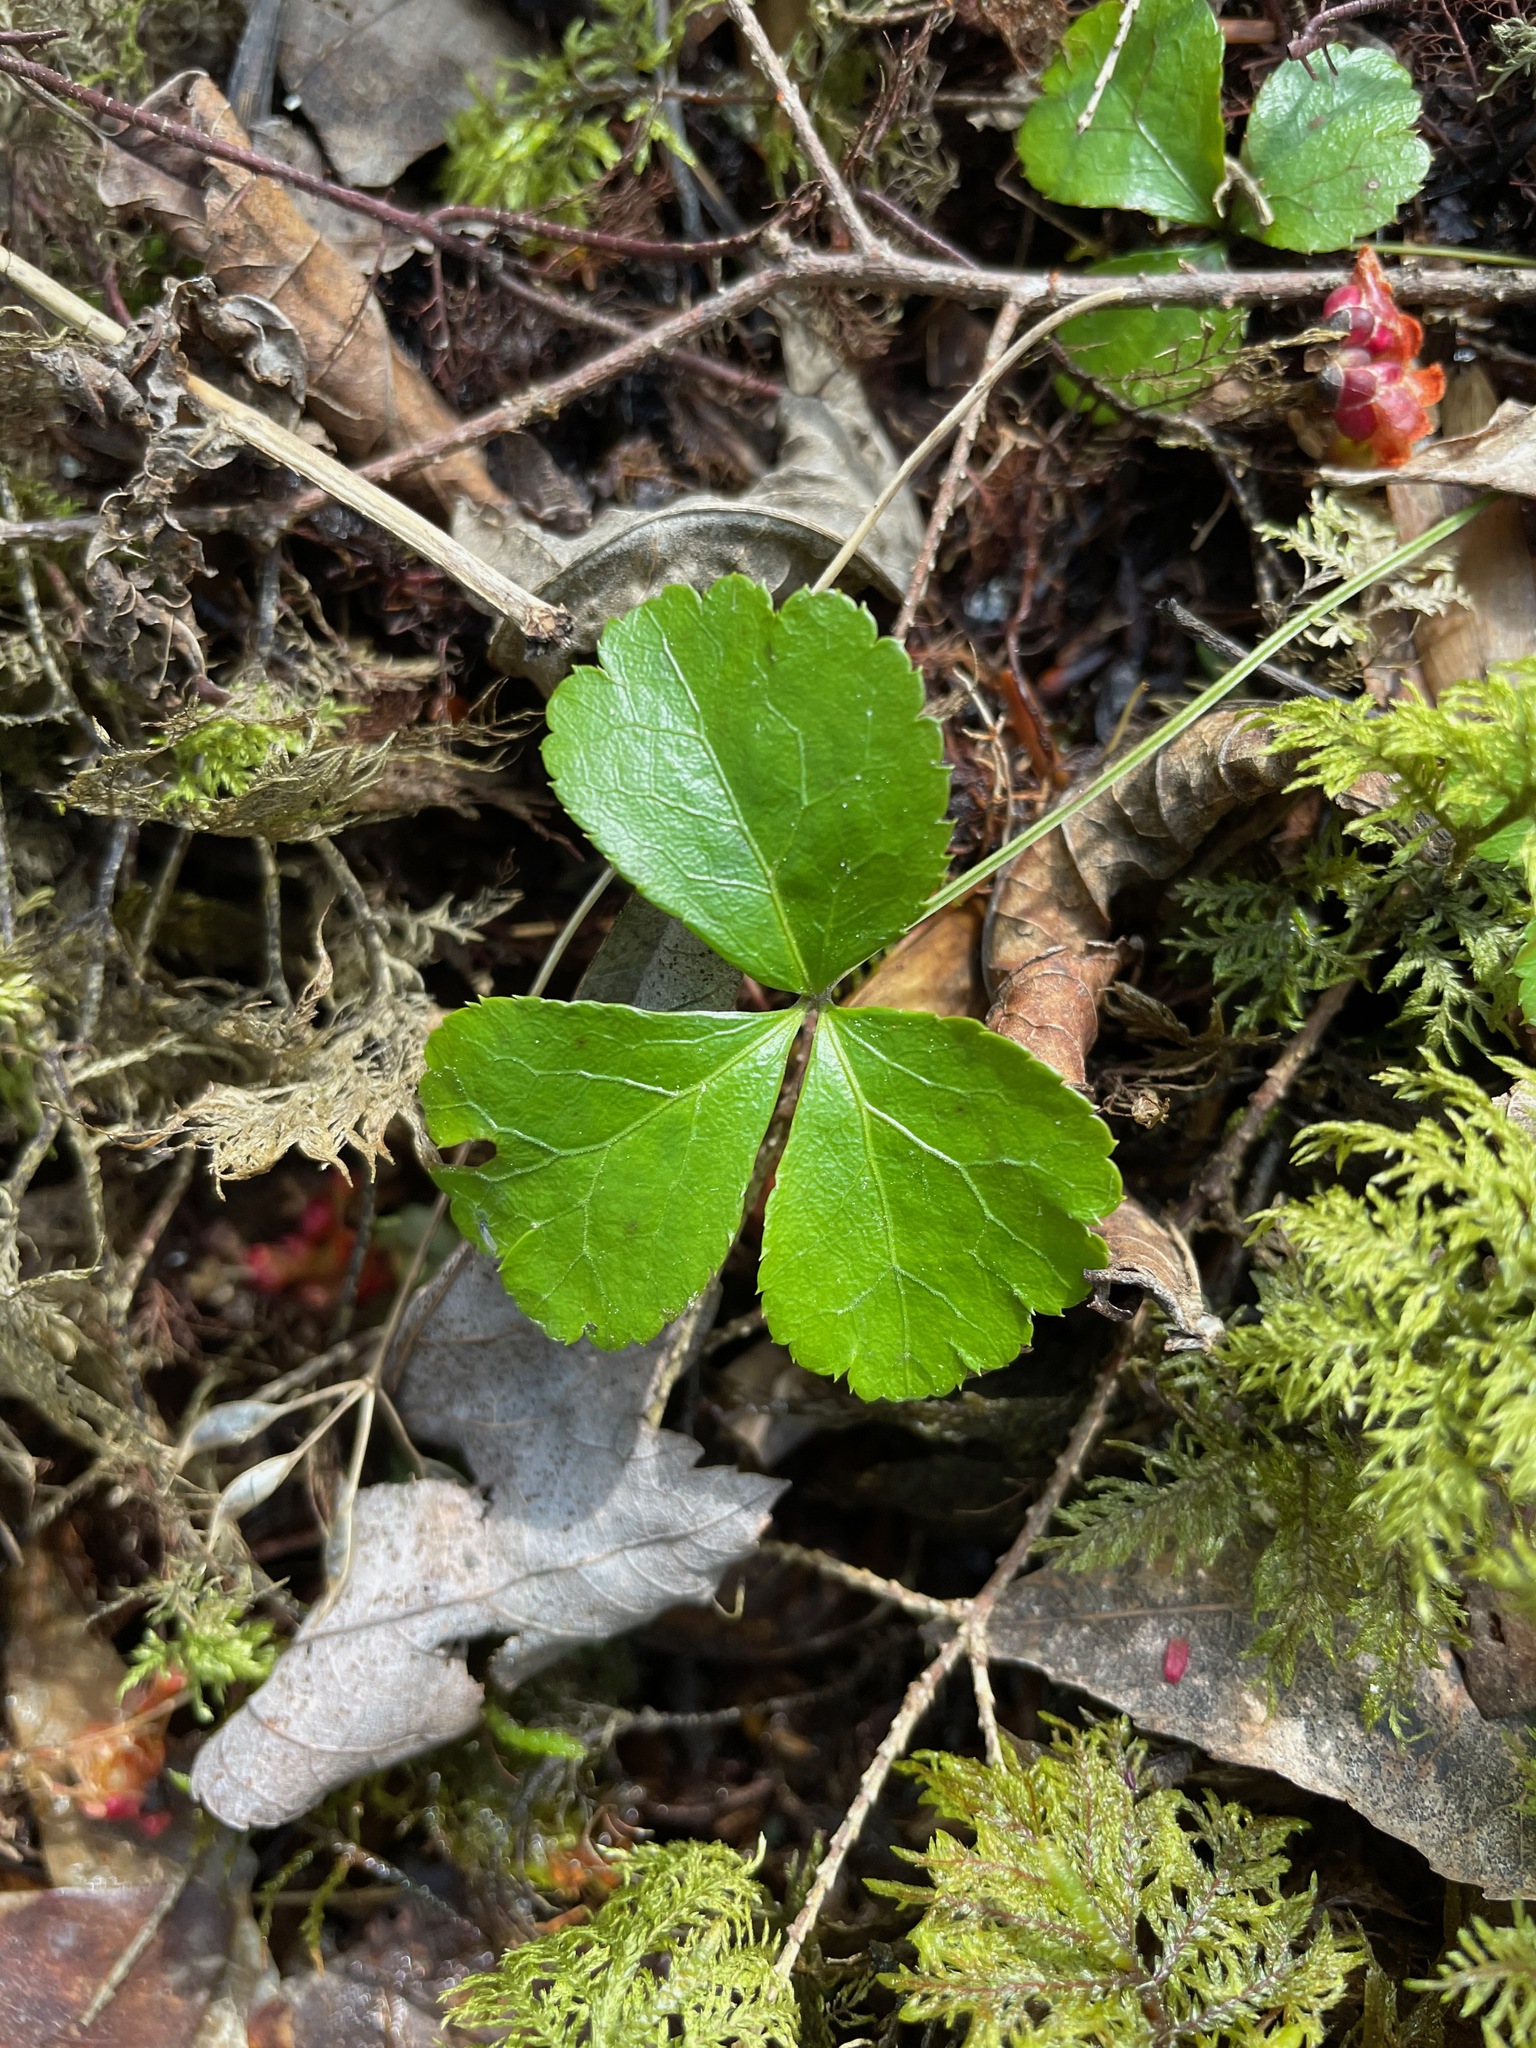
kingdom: Plantae
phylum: Tracheophyta
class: Magnoliopsida
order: Ranunculales
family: Ranunculaceae
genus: Coptis
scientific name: Coptis trifolia
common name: Canker-root
